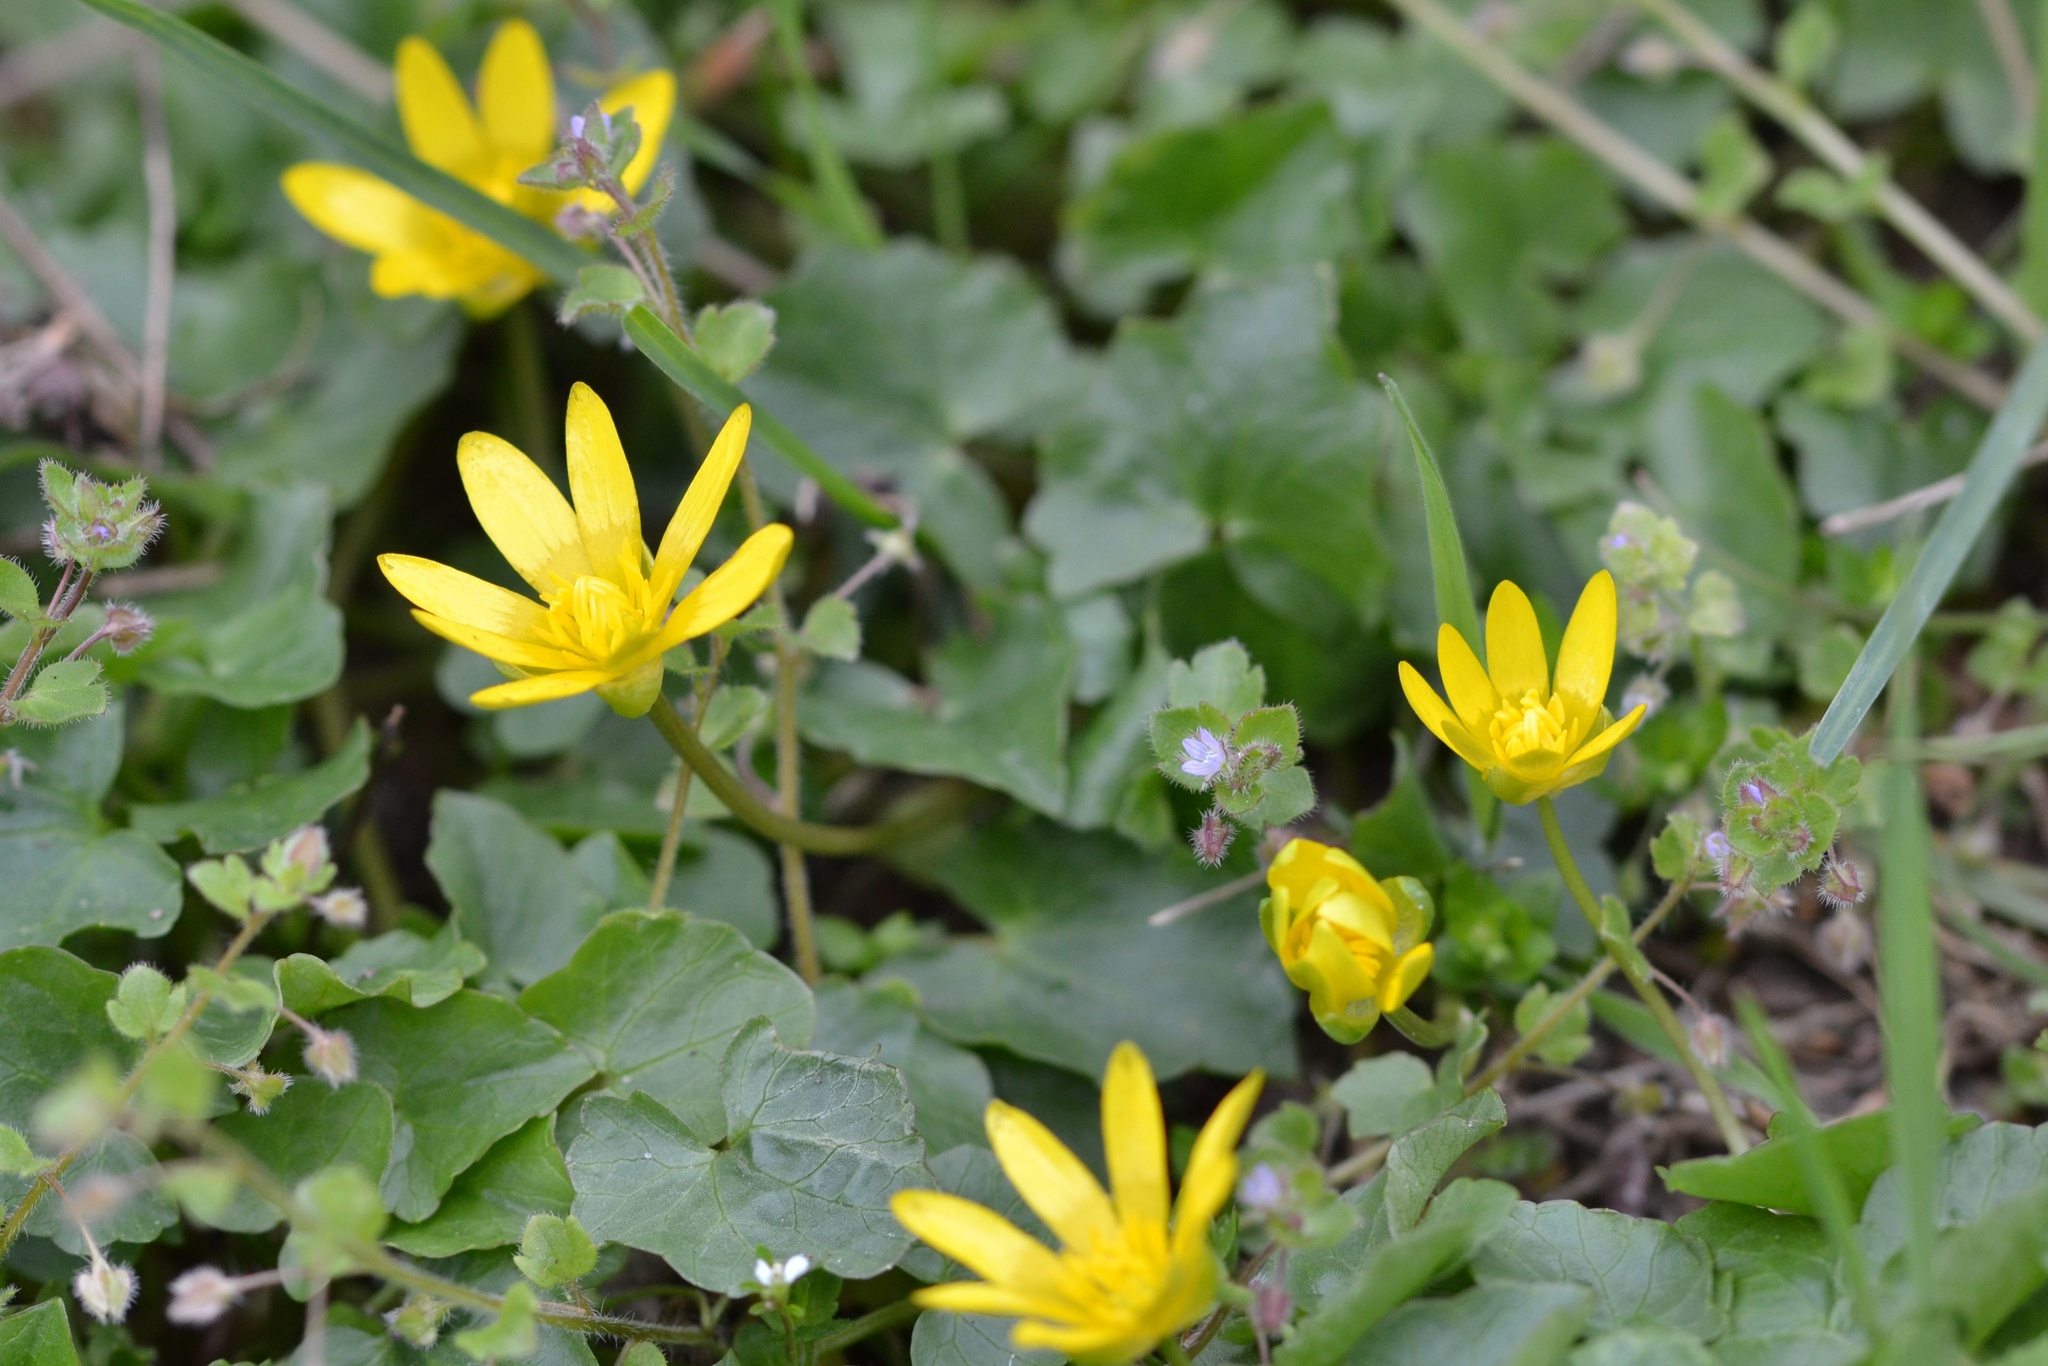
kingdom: Plantae
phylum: Tracheophyta
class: Magnoliopsida
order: Ranunculales
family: Ranunculaceae
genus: Ficaria
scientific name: Ficaria verna
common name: Lesser celandine
